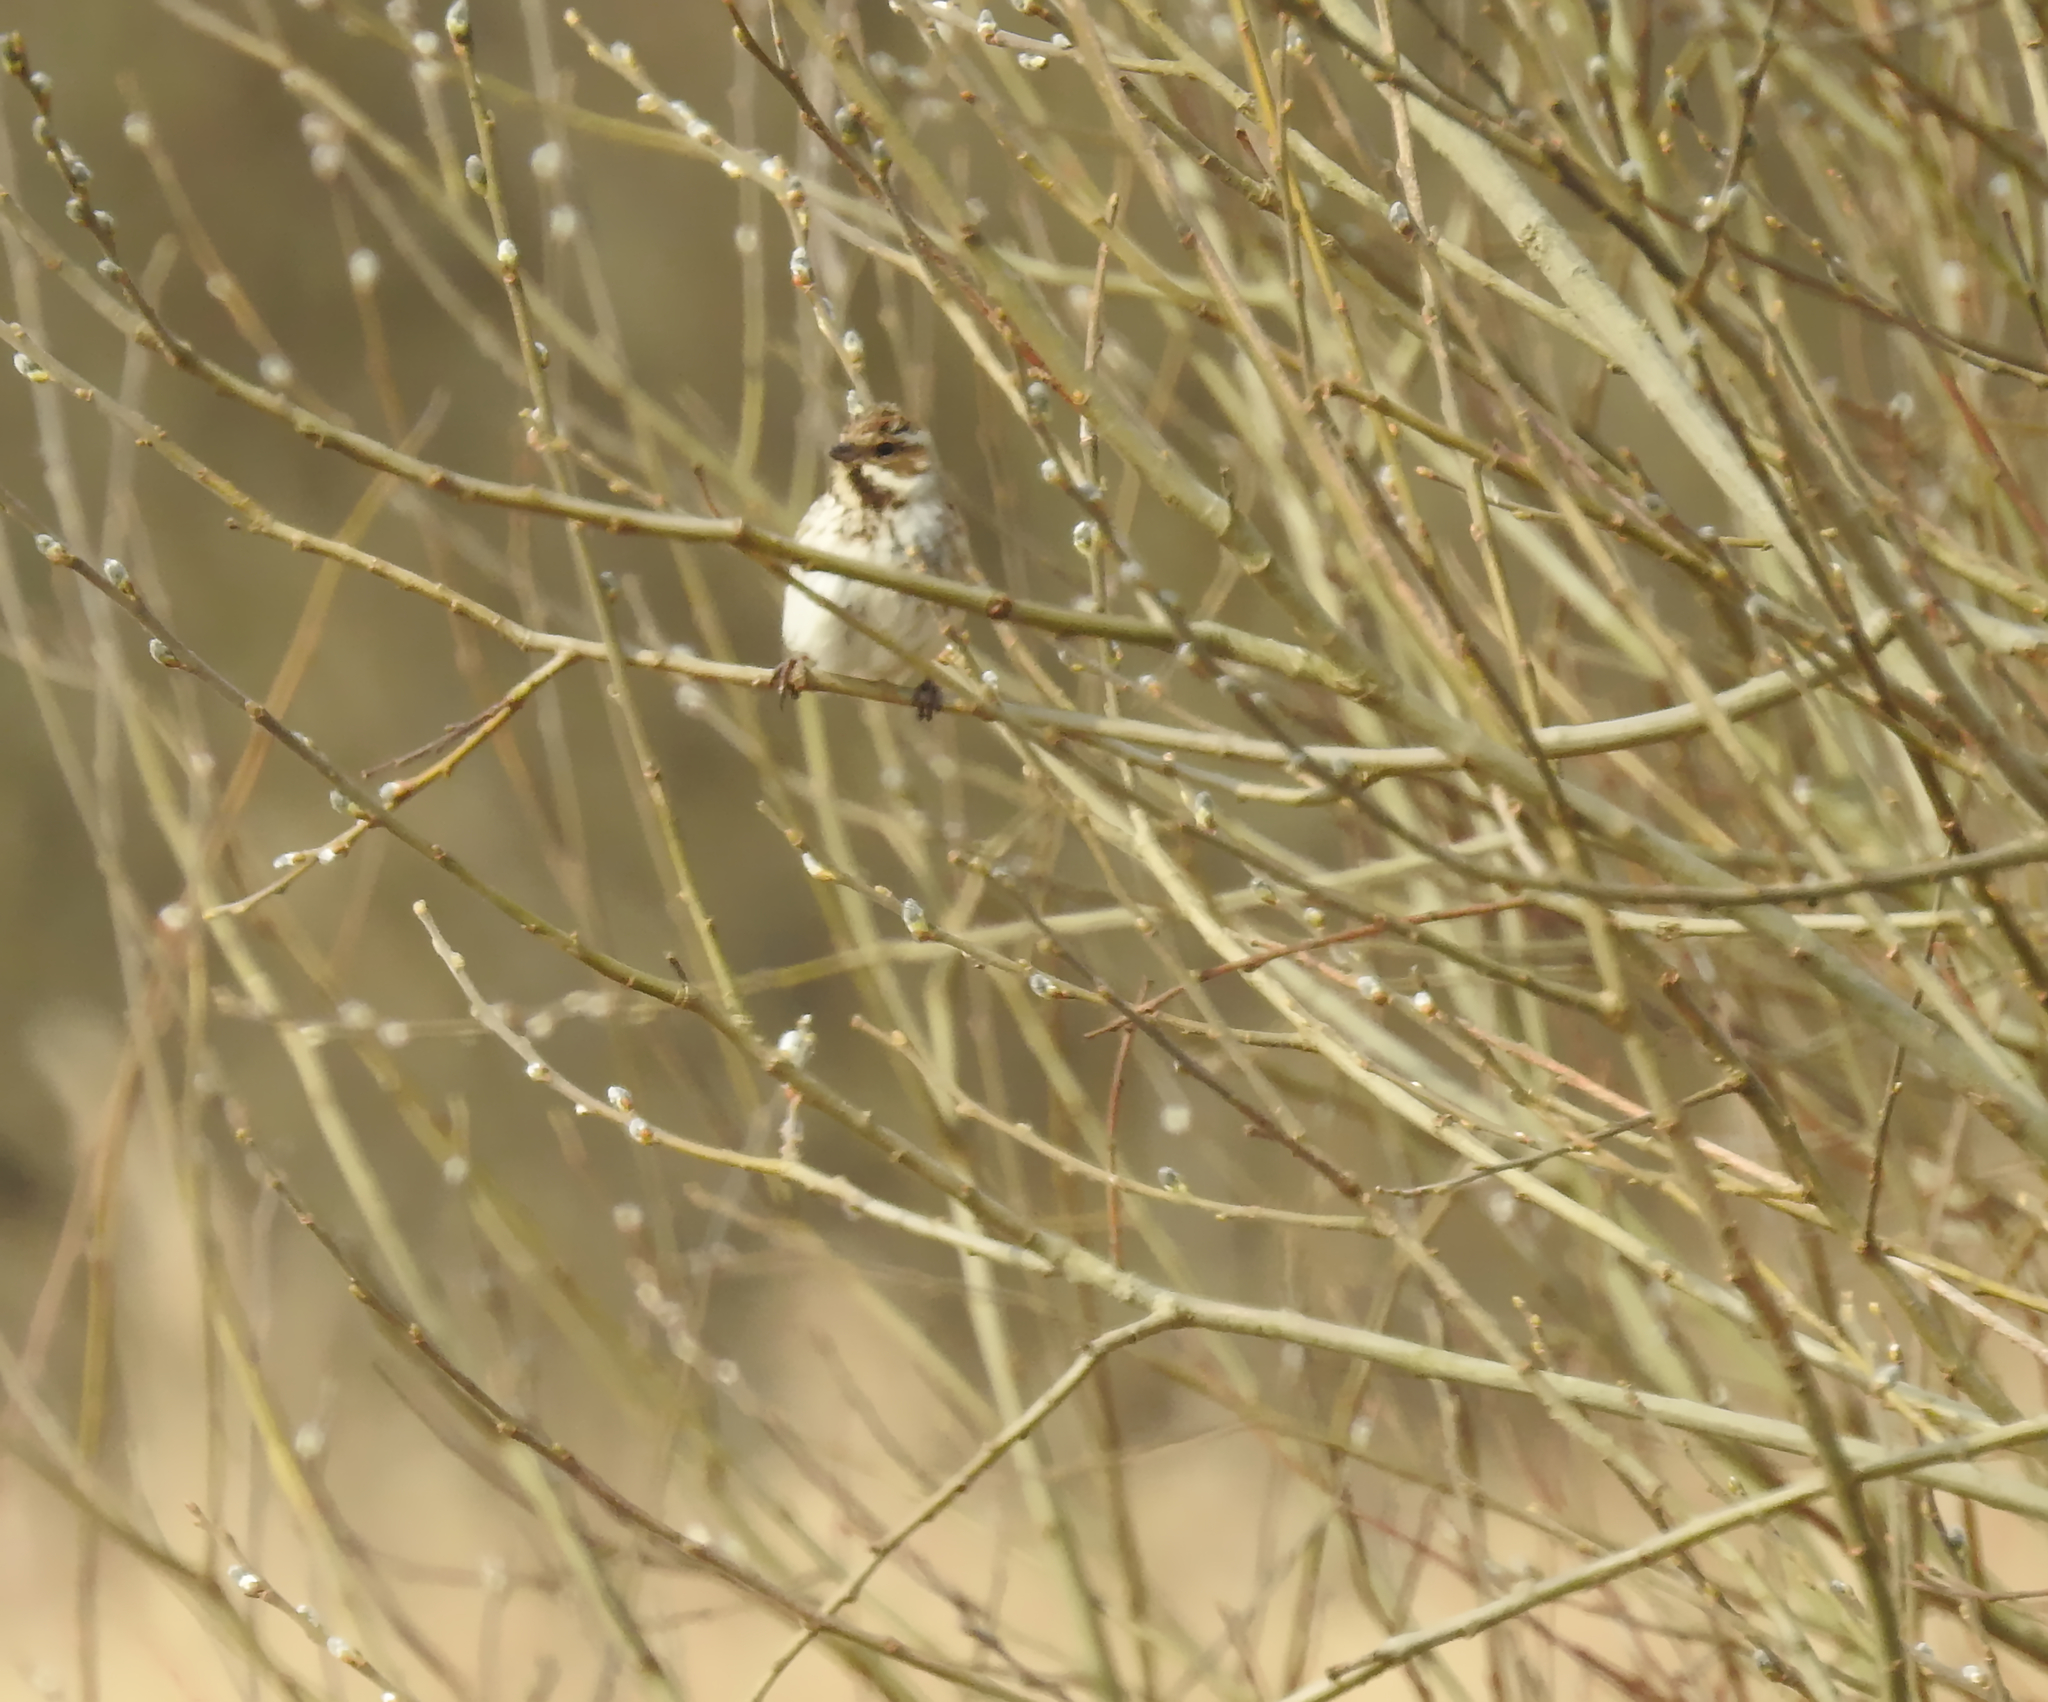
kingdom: Animalia
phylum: Chordata
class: Aves
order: Passeriformes
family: Emberizidae
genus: Emberiza
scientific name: Emberiza schoeniclus
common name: Reed bunting
